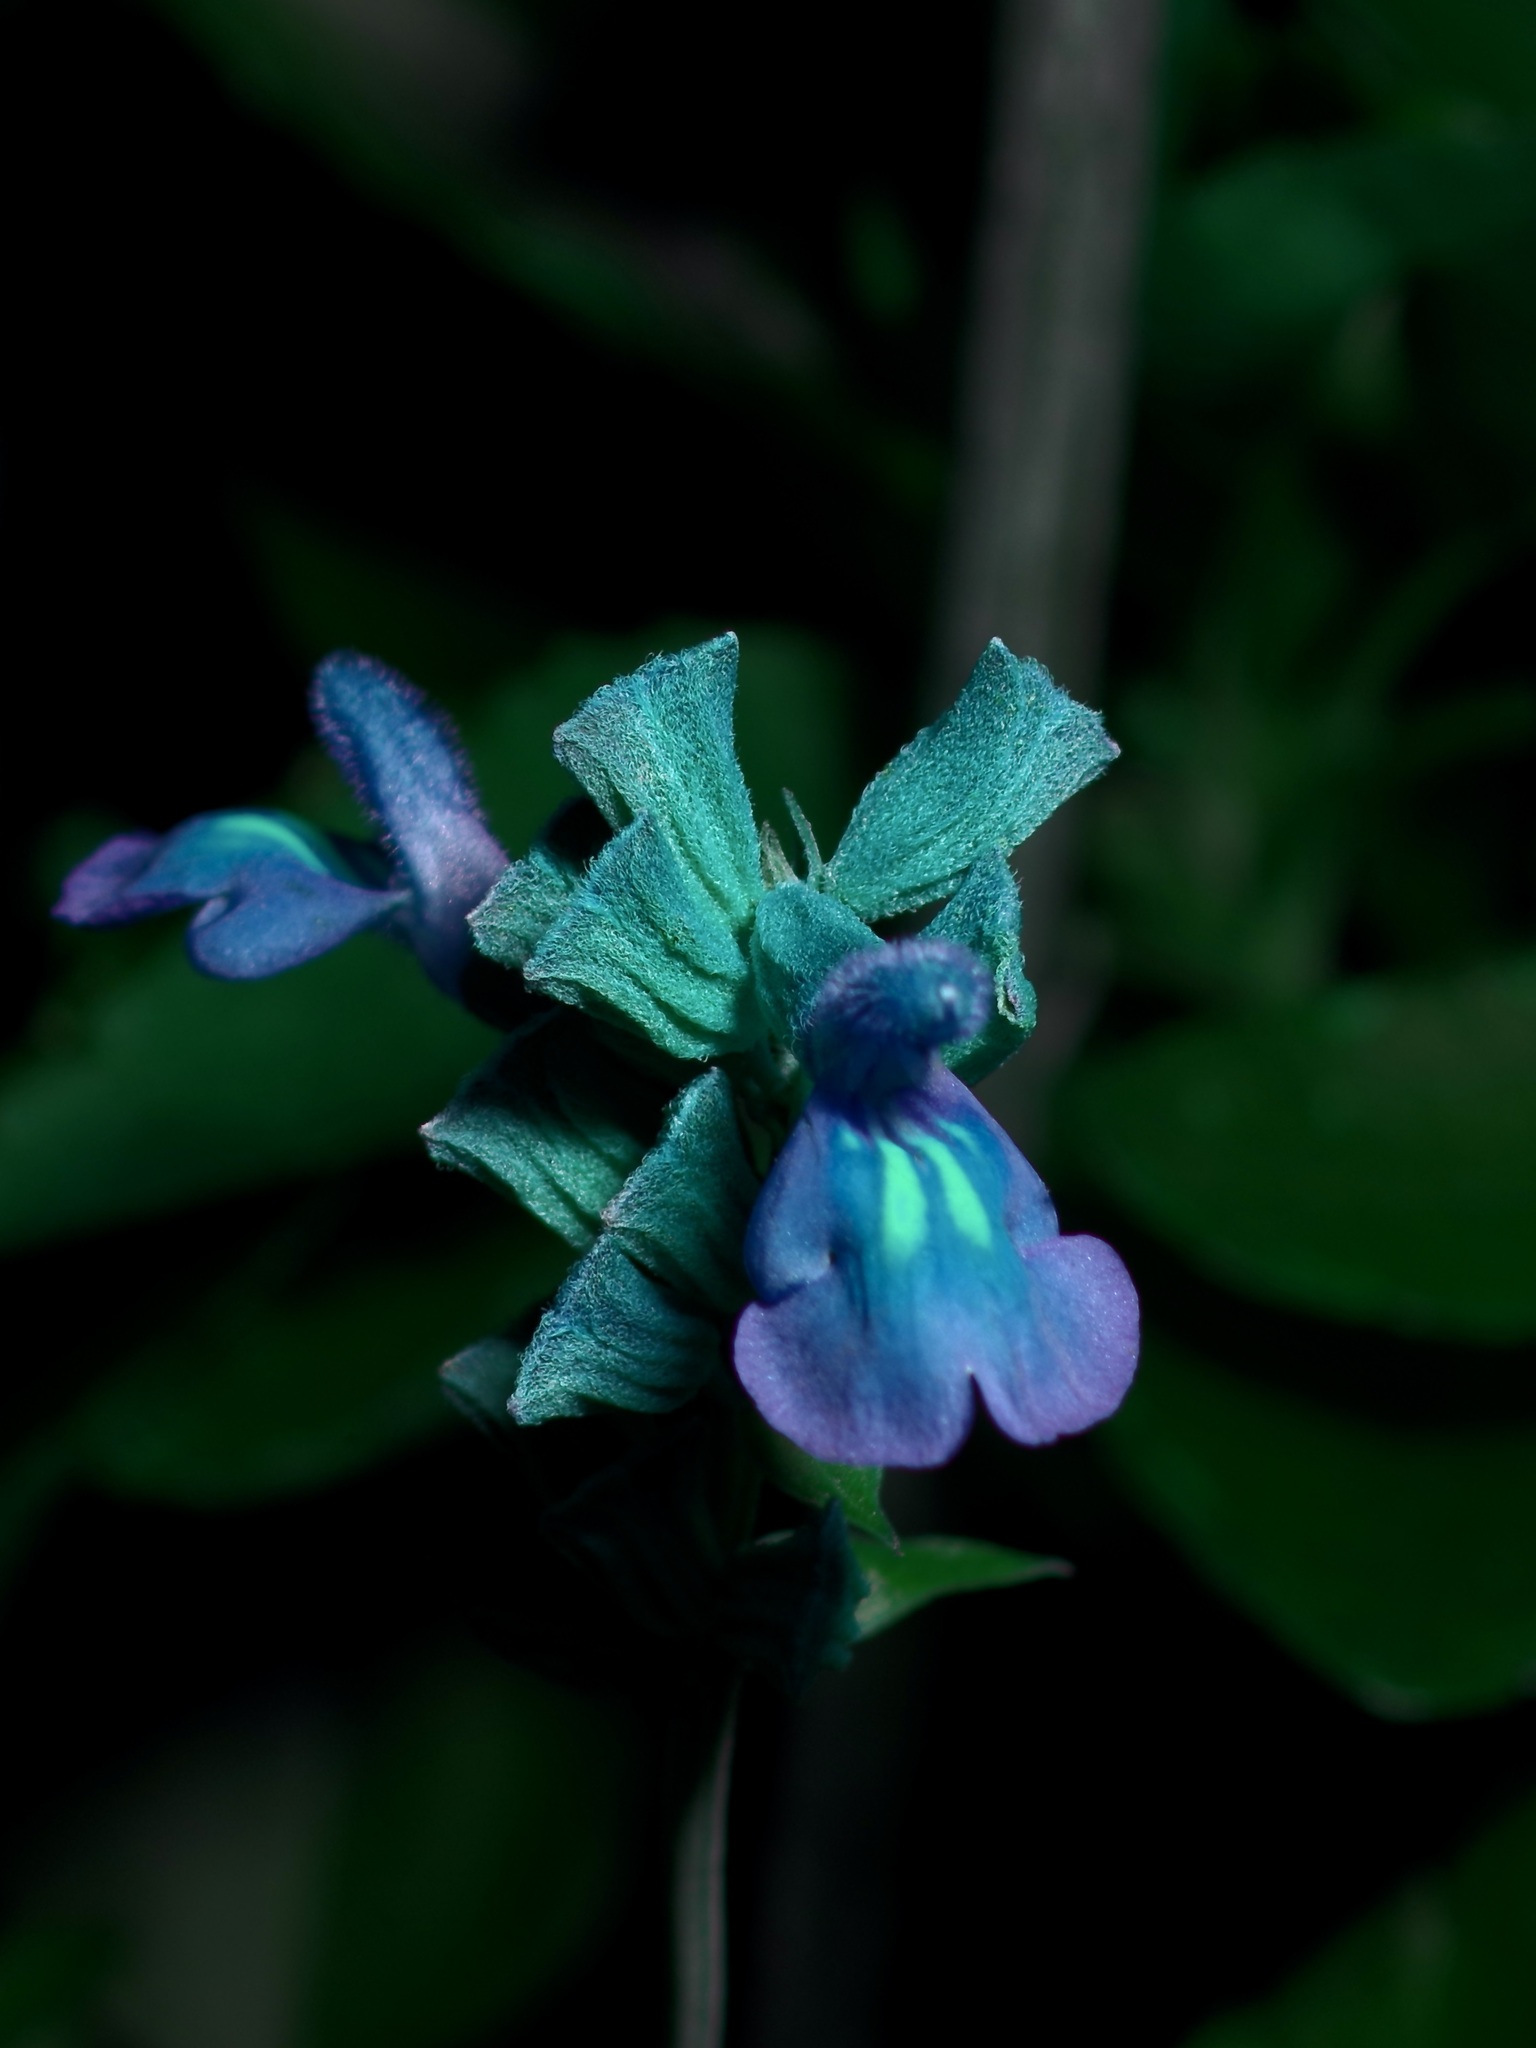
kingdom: Plantae
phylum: Tracheophyta
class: Magnoliopsida
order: Lamiales
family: Lamiaceae
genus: Salvia
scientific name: Salvia farinacea
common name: Mealy sage
